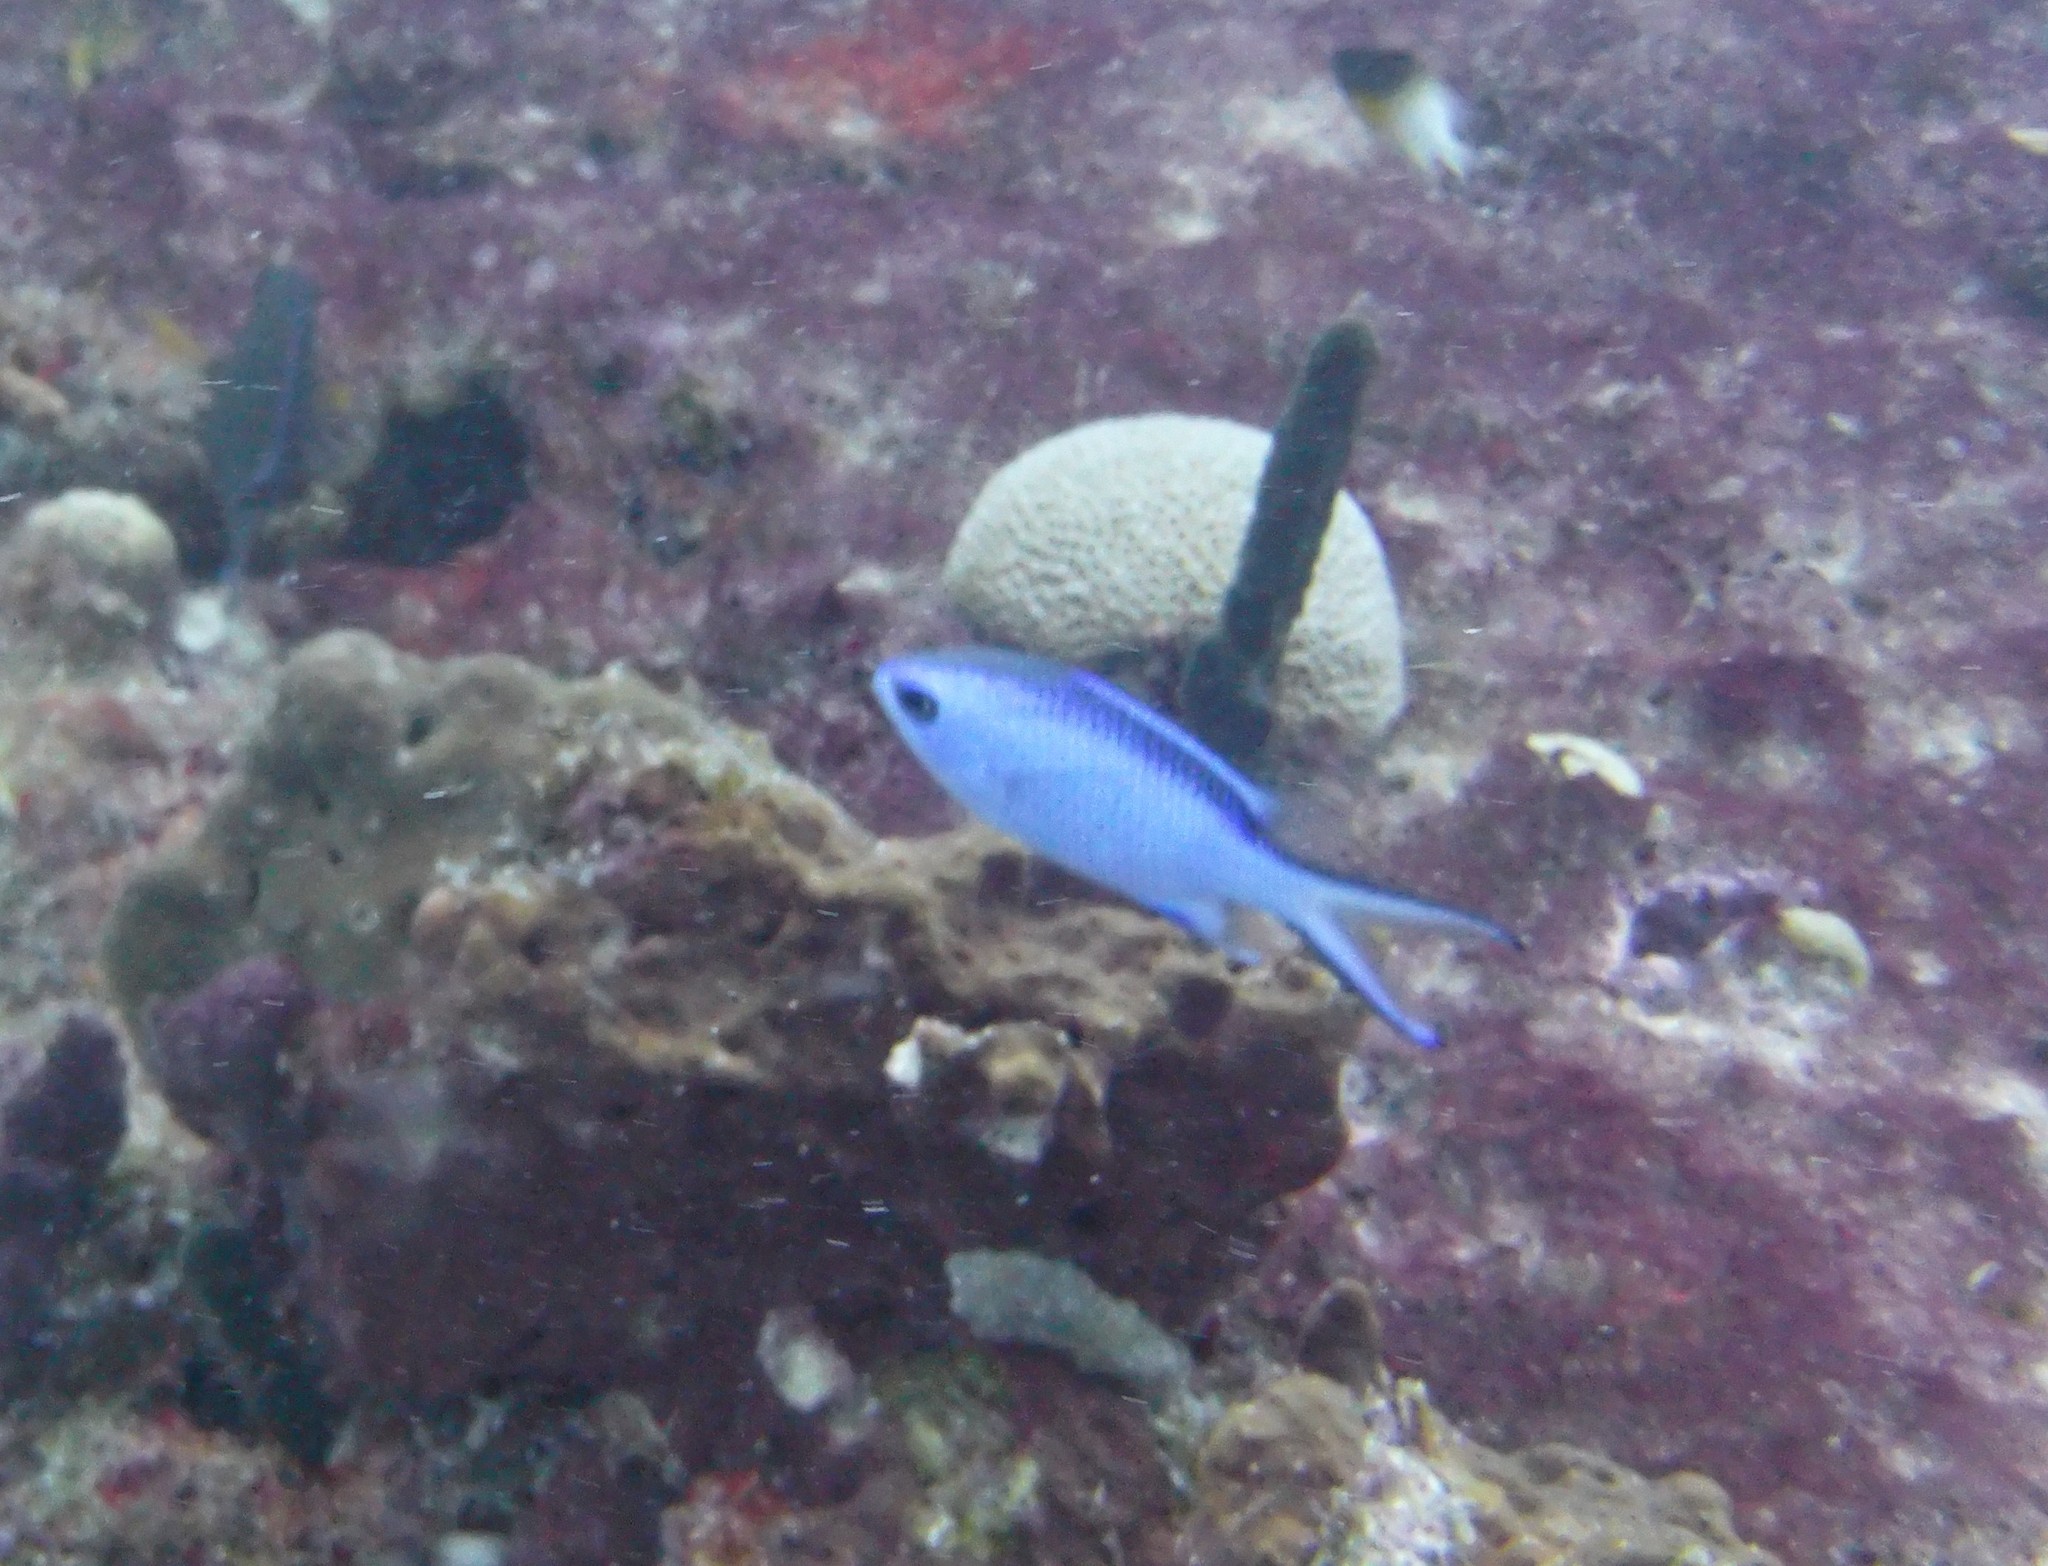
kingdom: Animalia
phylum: Chordata
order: Perciformes
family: Pomacentridae
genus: Chromis
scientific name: Chromis cyanea
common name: Blue chromis
